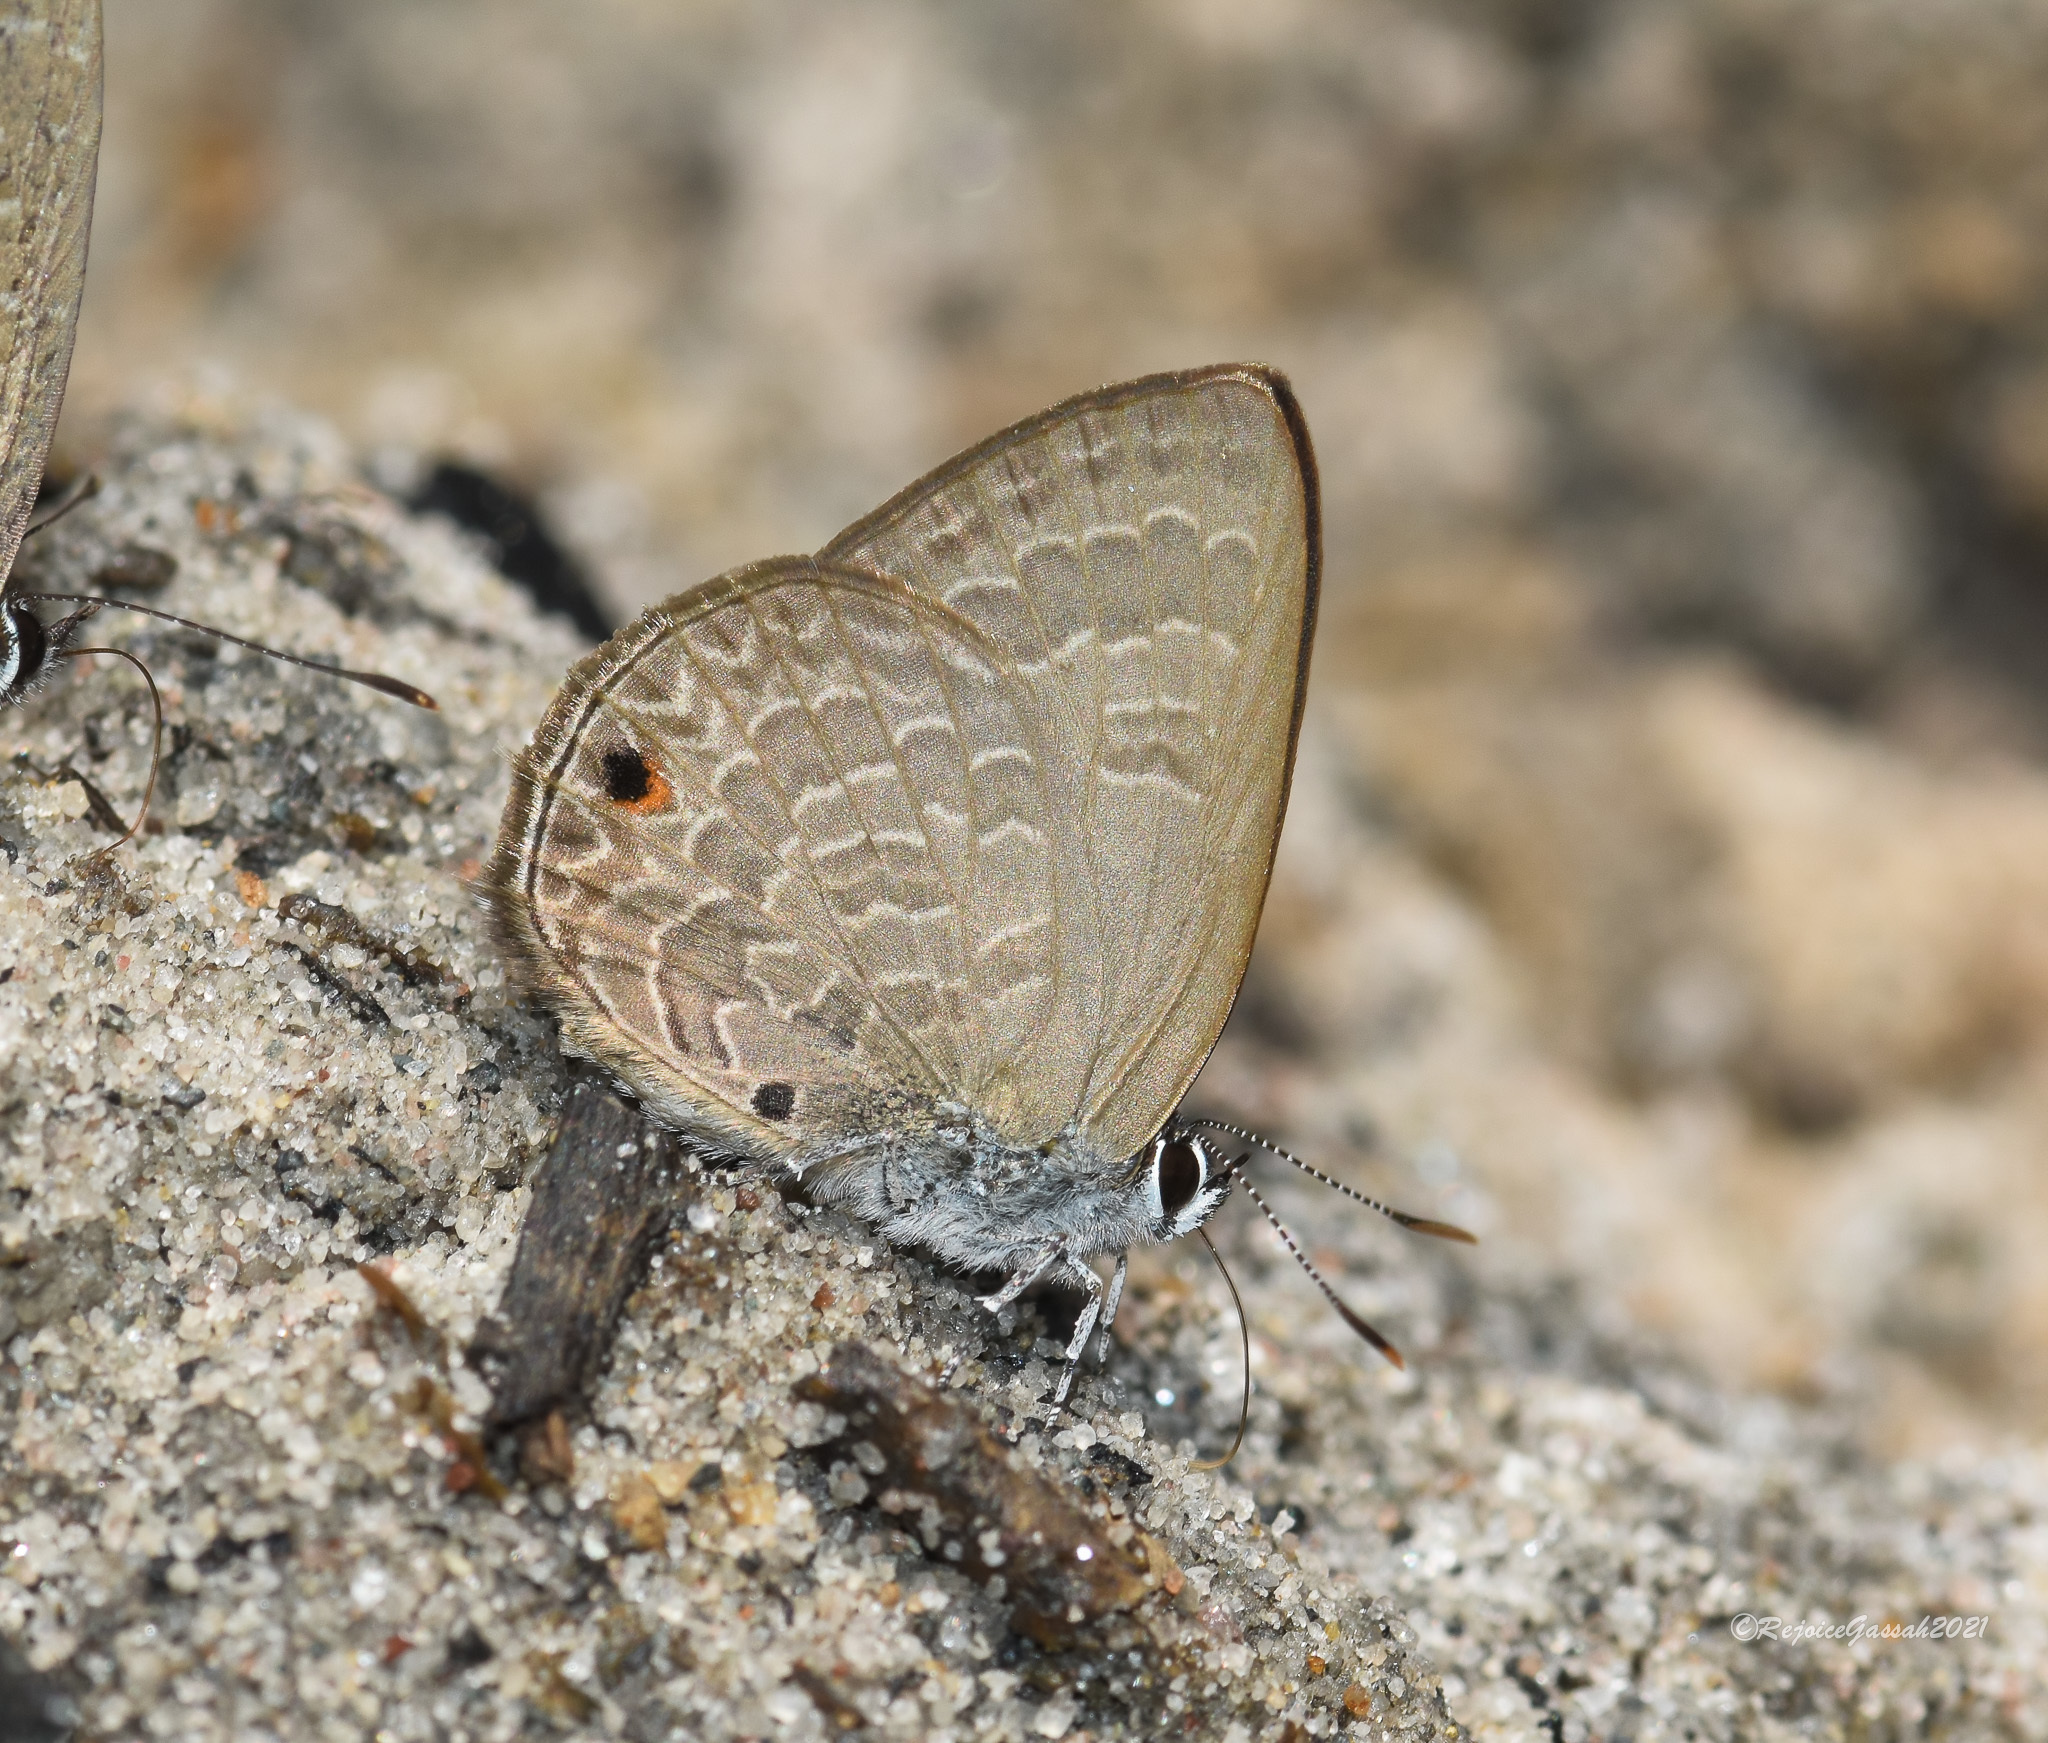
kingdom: Animalia
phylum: Arthropoda
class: Insecta
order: Lepidoptera
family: Lycaenidae
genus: Anthene
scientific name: Anthene emolus
